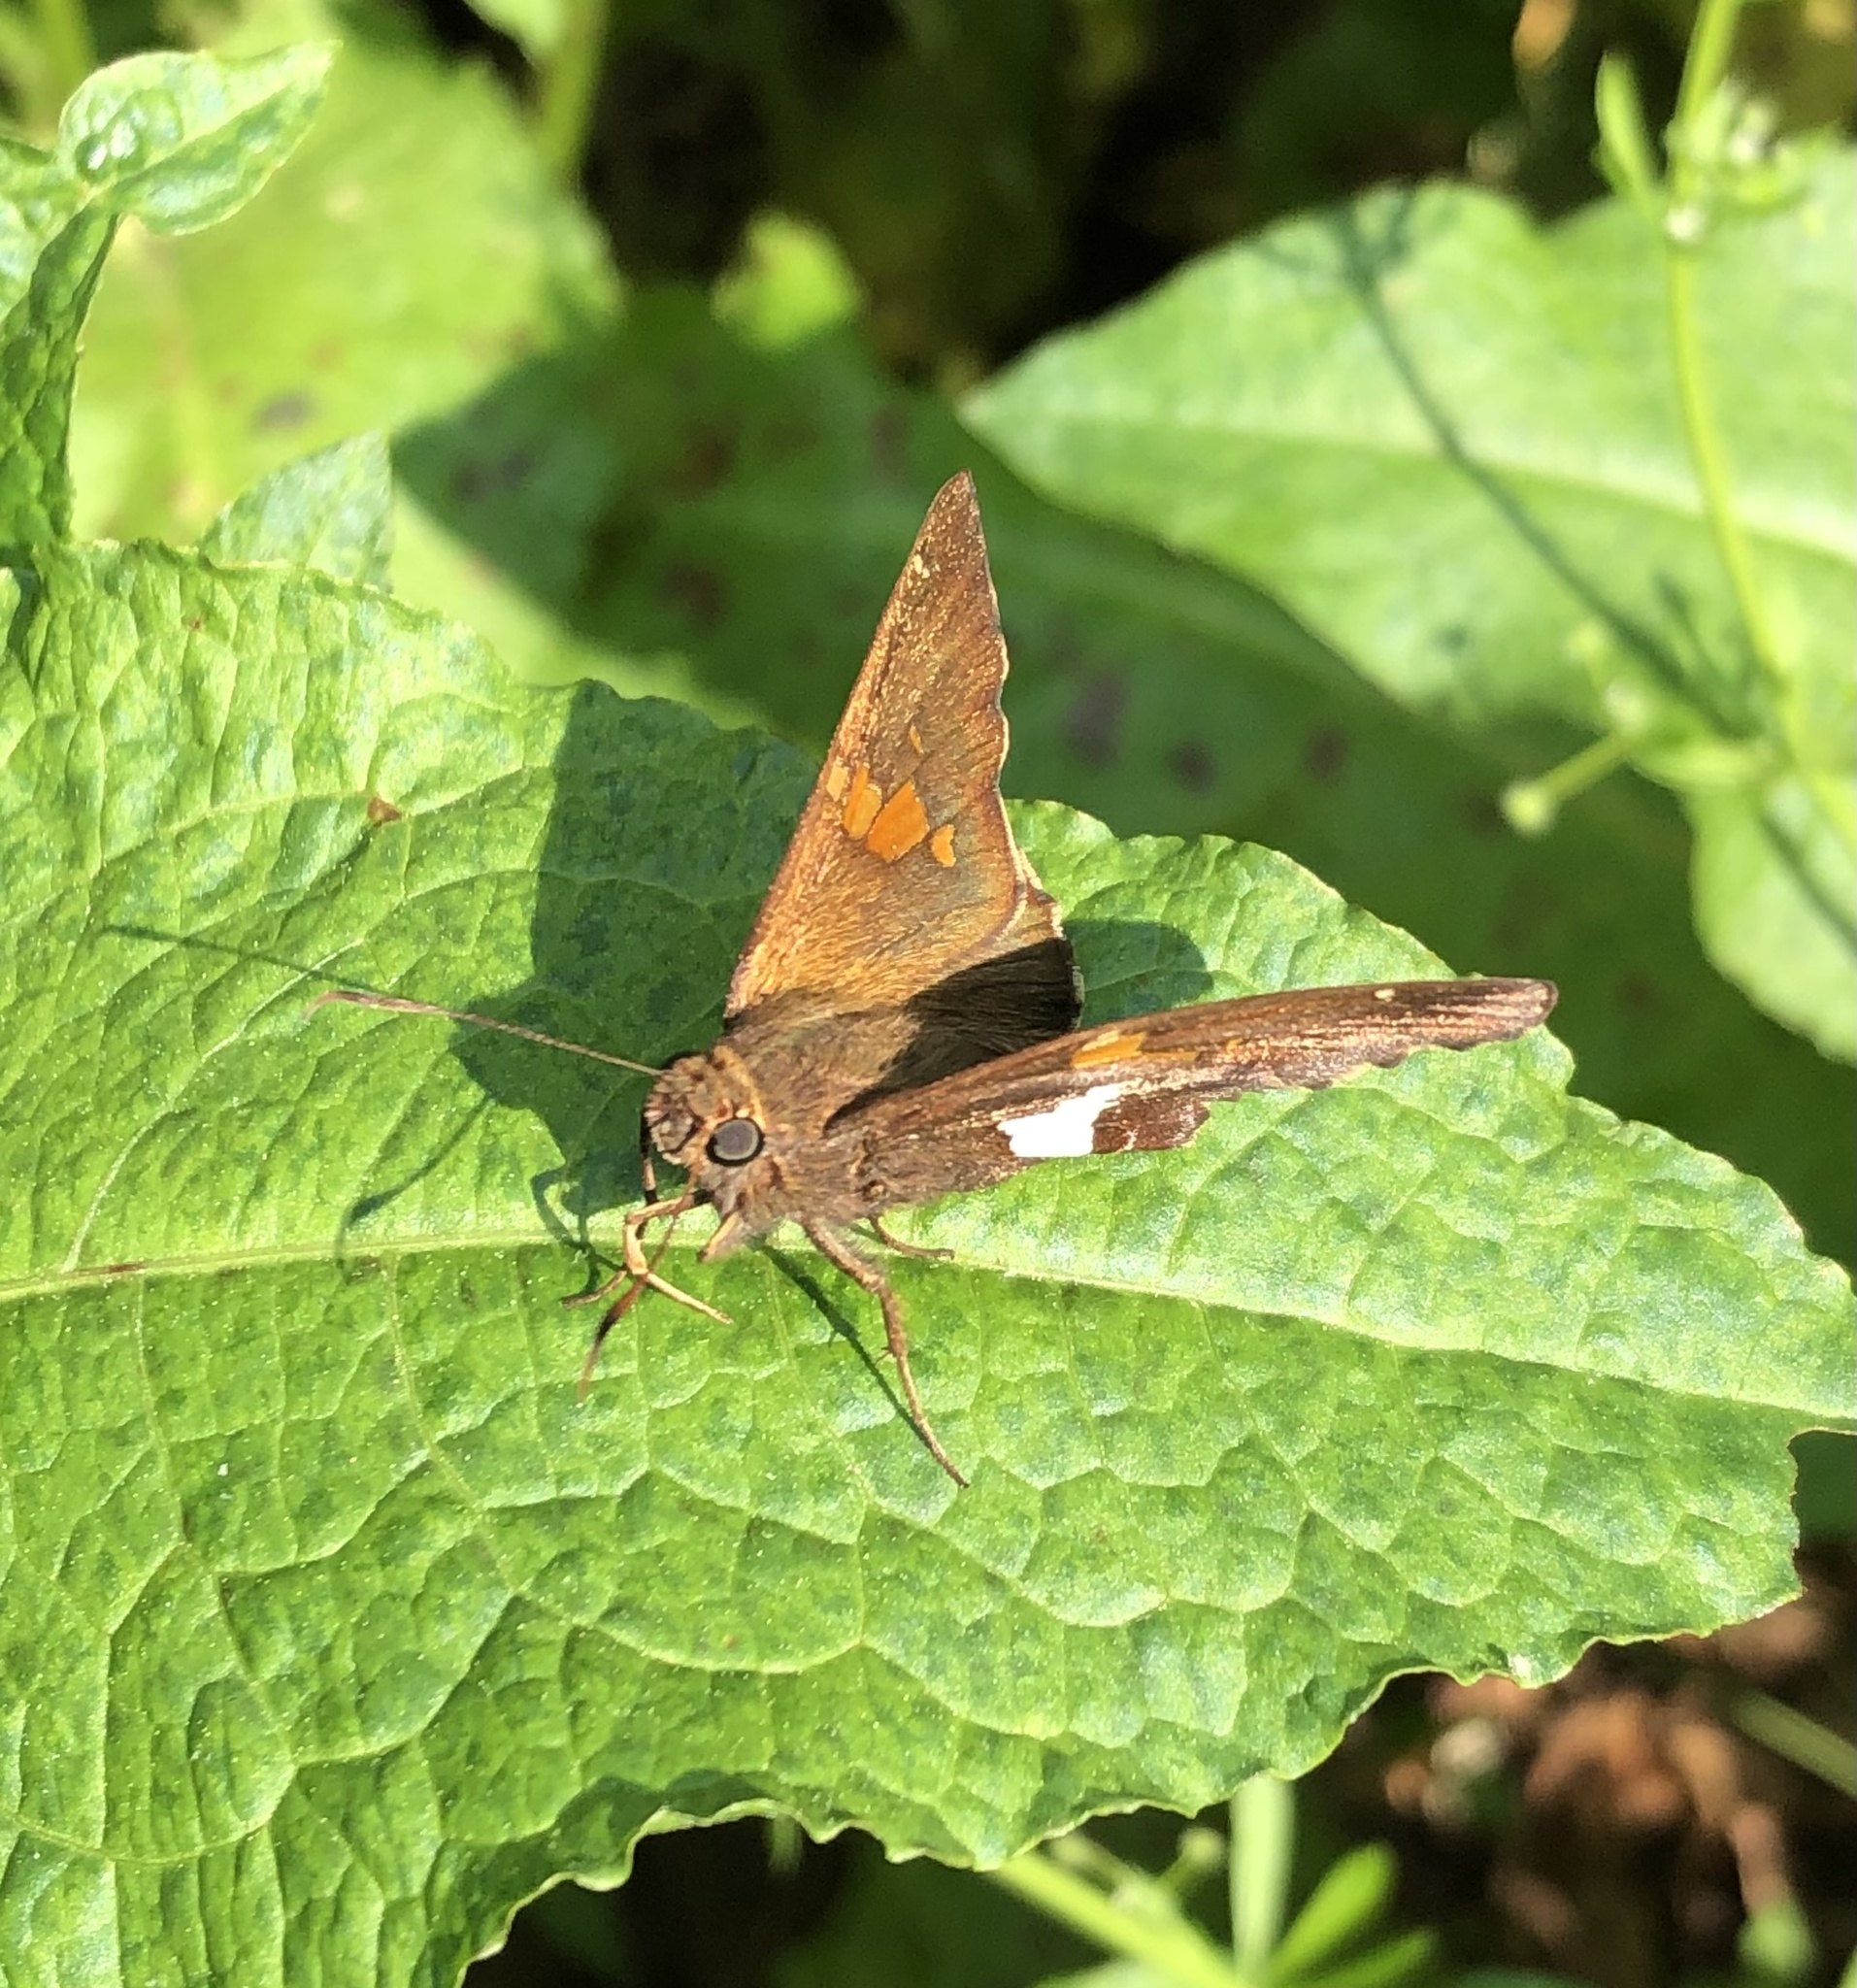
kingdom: Animalia
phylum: Arthropoda
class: Insecta
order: Lepidoptera
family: Hesperiidae
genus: Epargyreus
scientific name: Epargyreus clarus
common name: Silver-spotted skipper
